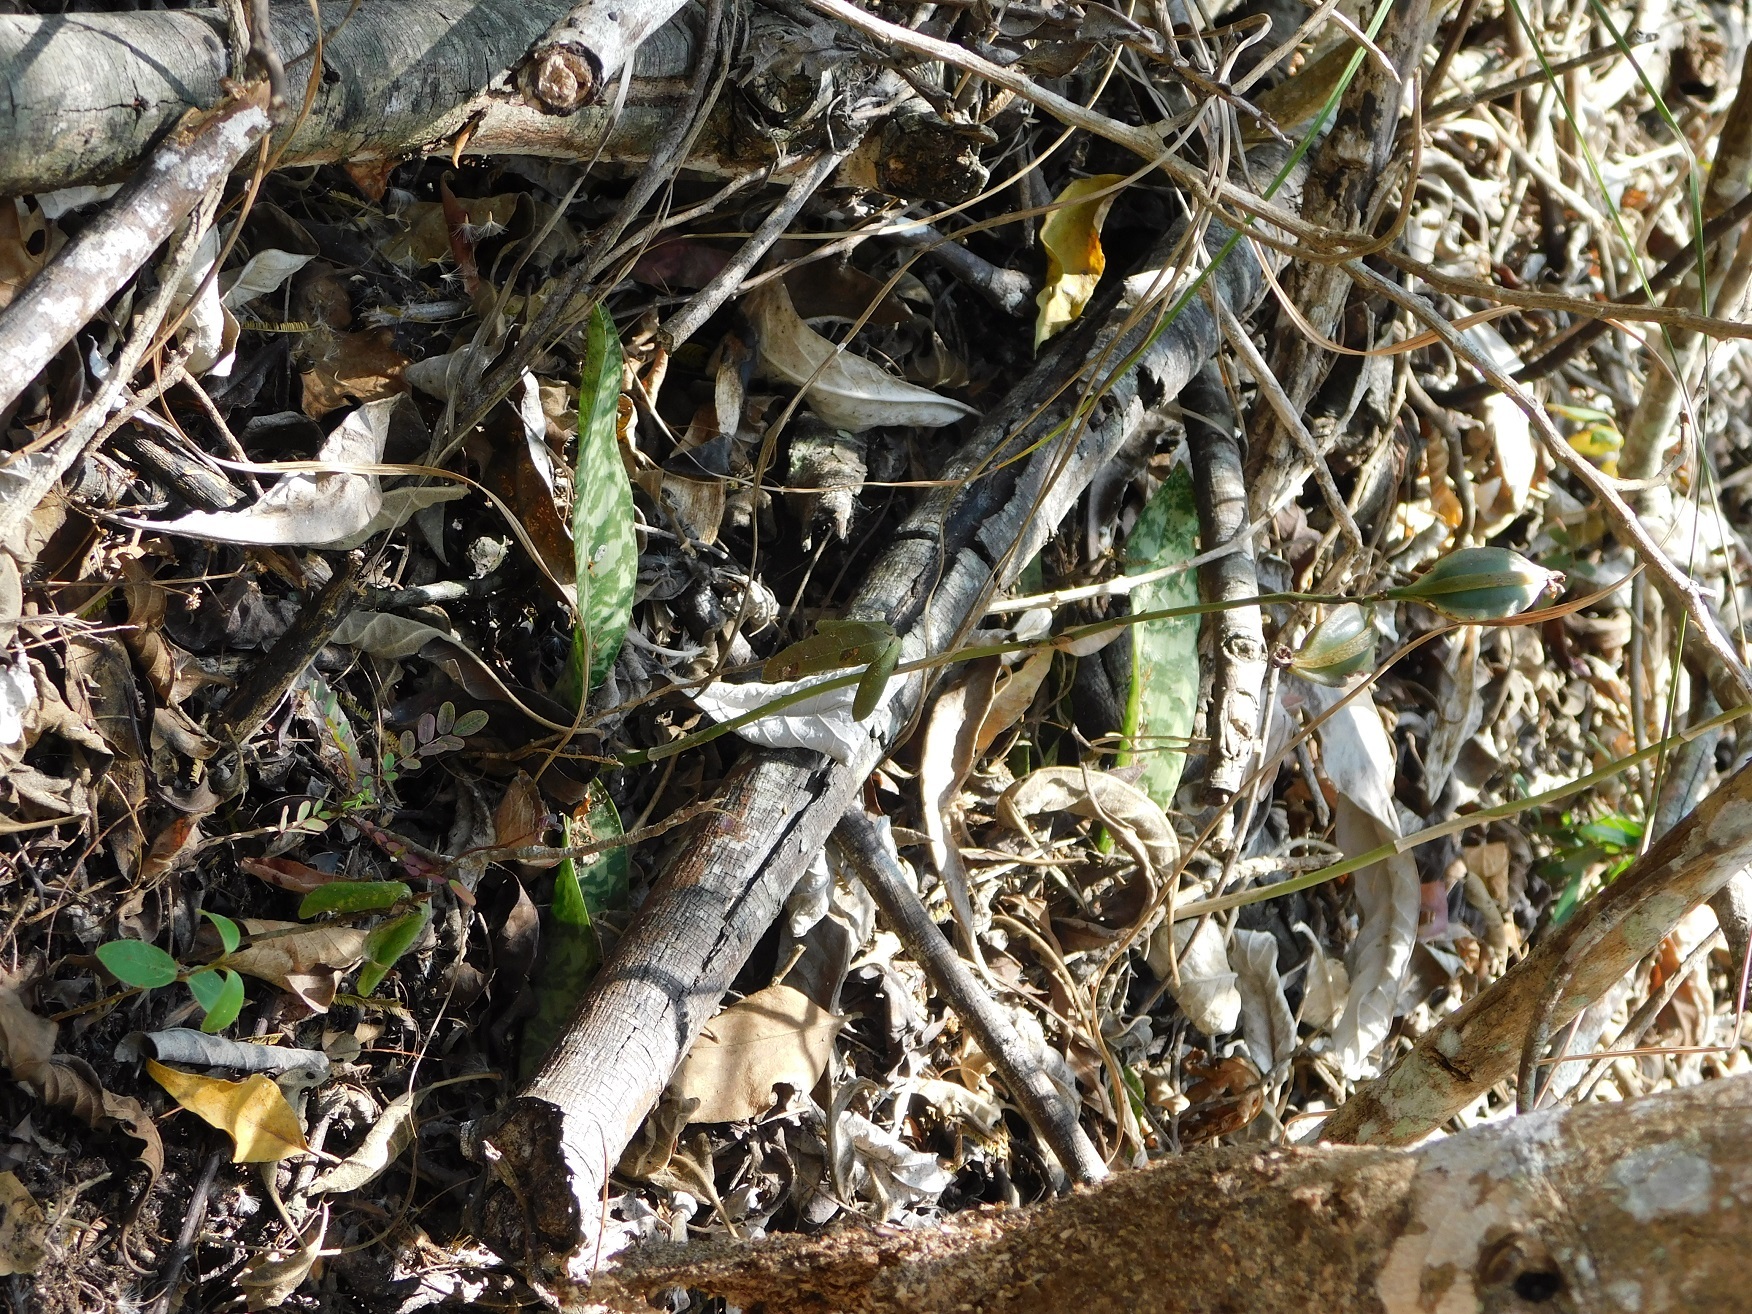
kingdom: Plantae
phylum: Tracheophyta
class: Liliopsida
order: Asparagales
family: Orchidaceae
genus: Eulophia
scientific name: Eulophia maculata
